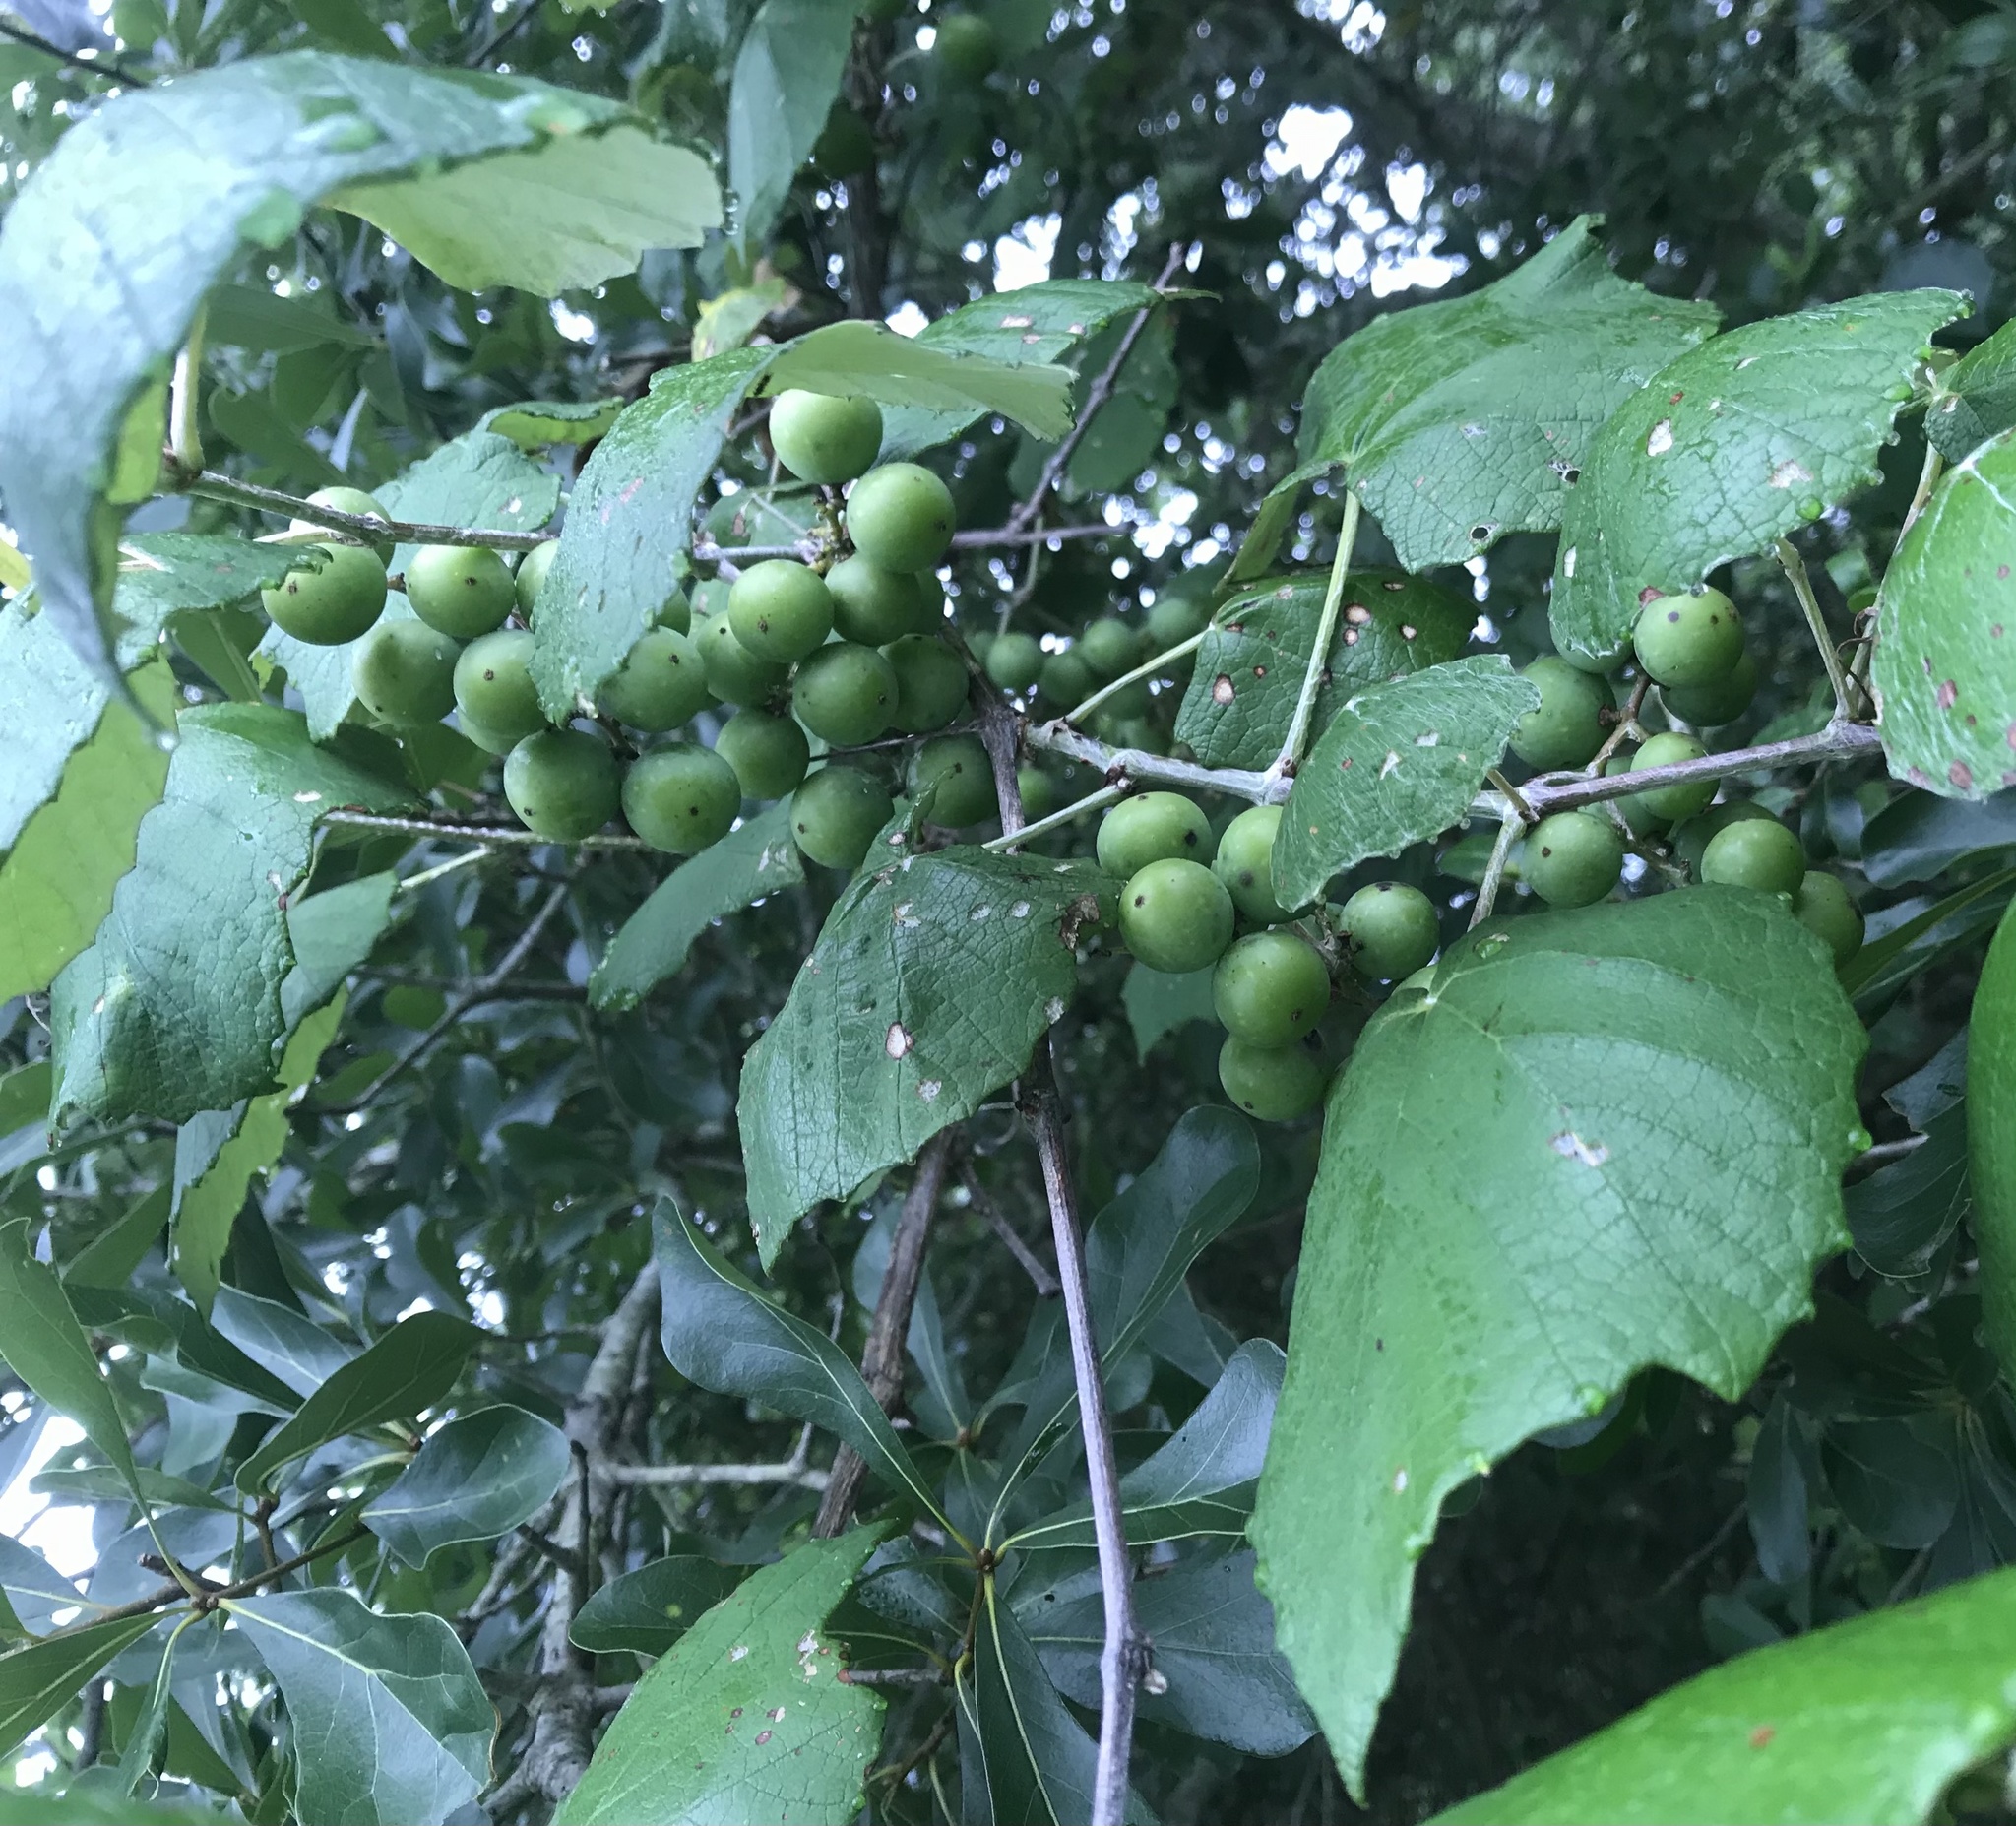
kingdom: Plantae
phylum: Tracheophyta
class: Magnoliopsida
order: Vitales
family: Vitaceae
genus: Vitis
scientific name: Vitis mustangensis
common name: Mustang grape
